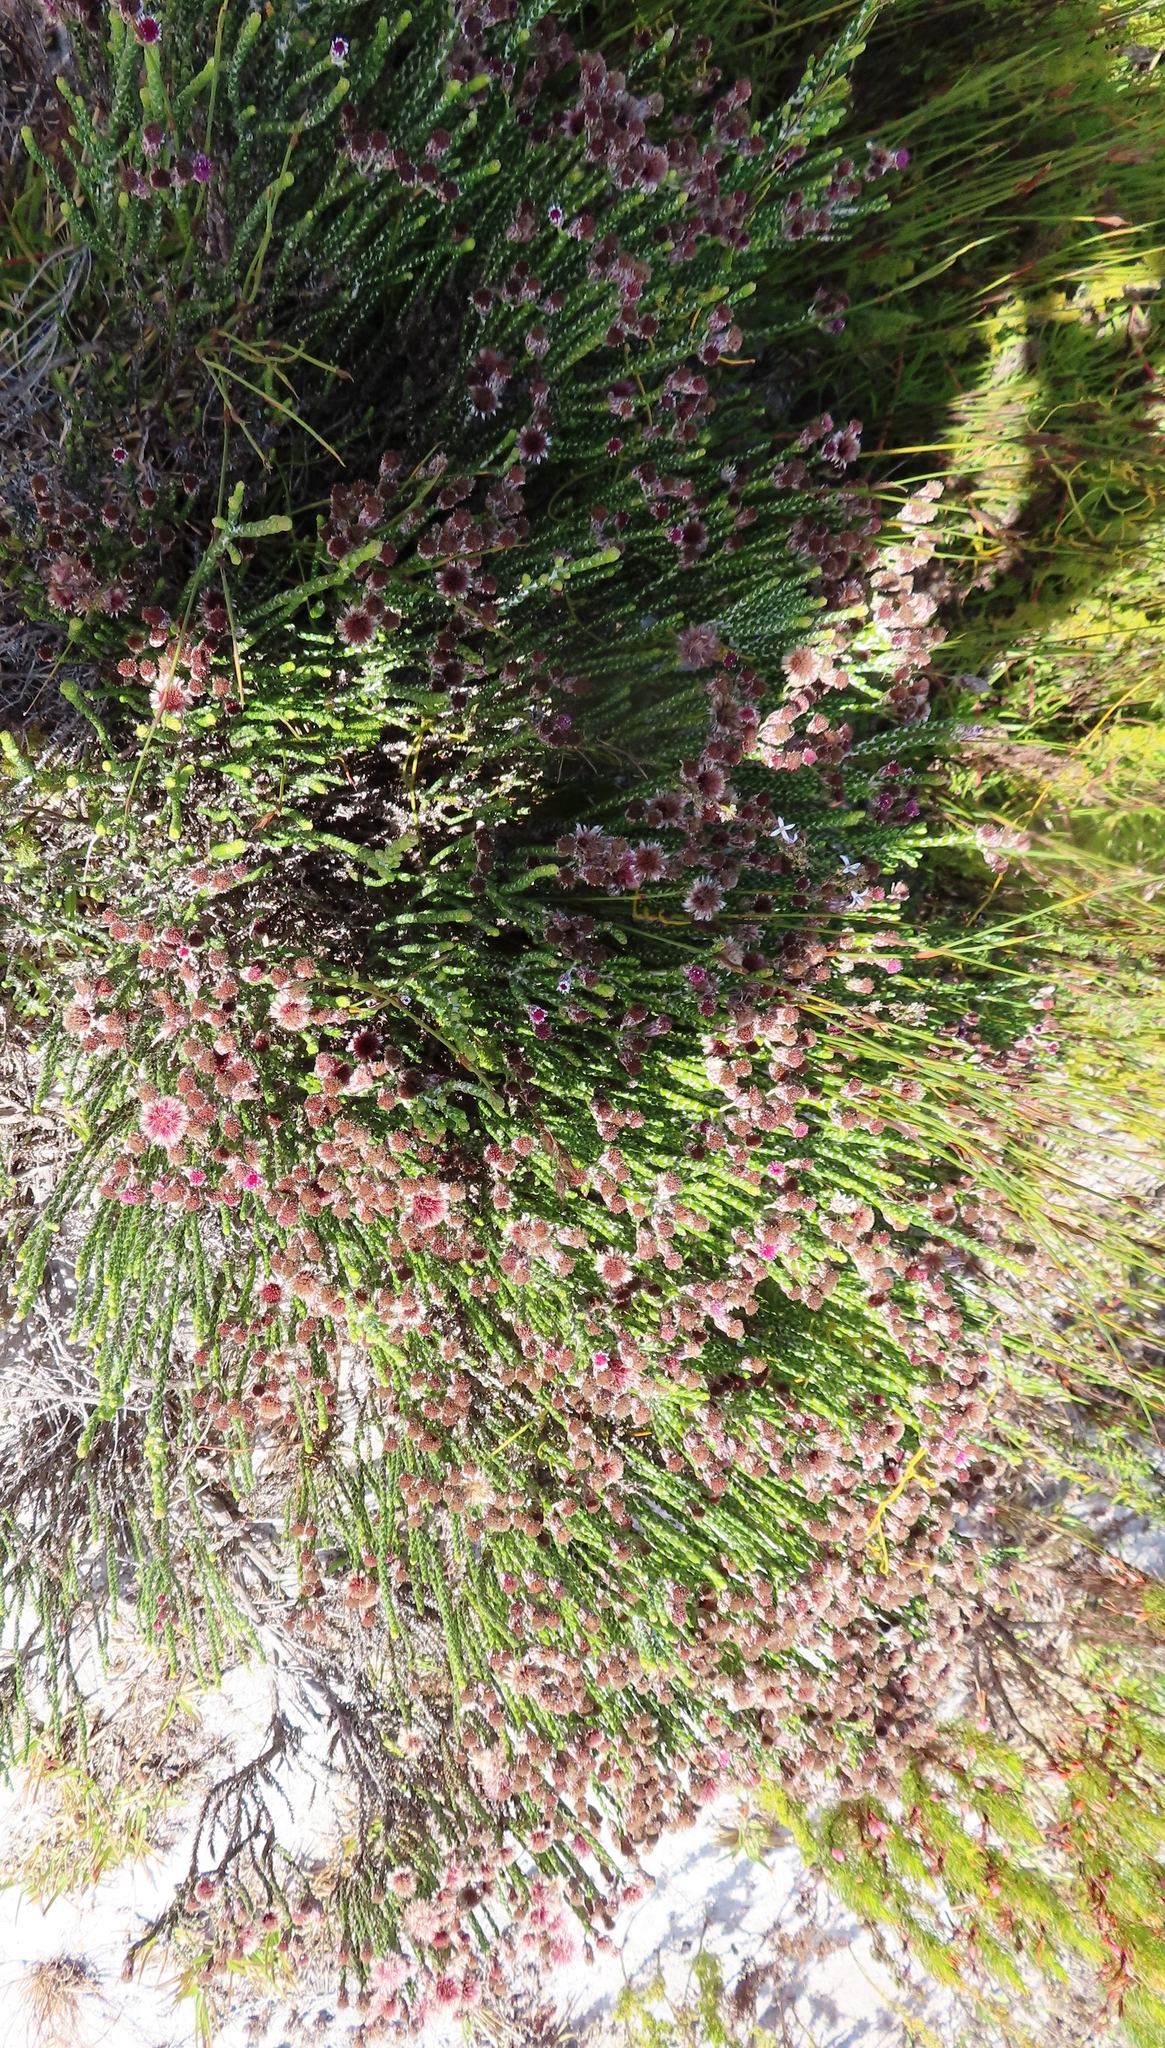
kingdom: Plantae
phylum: Tracheophyta
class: Magnoliopsida
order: Asterales
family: Asteraceae
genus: Lachnospermum
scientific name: Lachnospermum imbricatum
